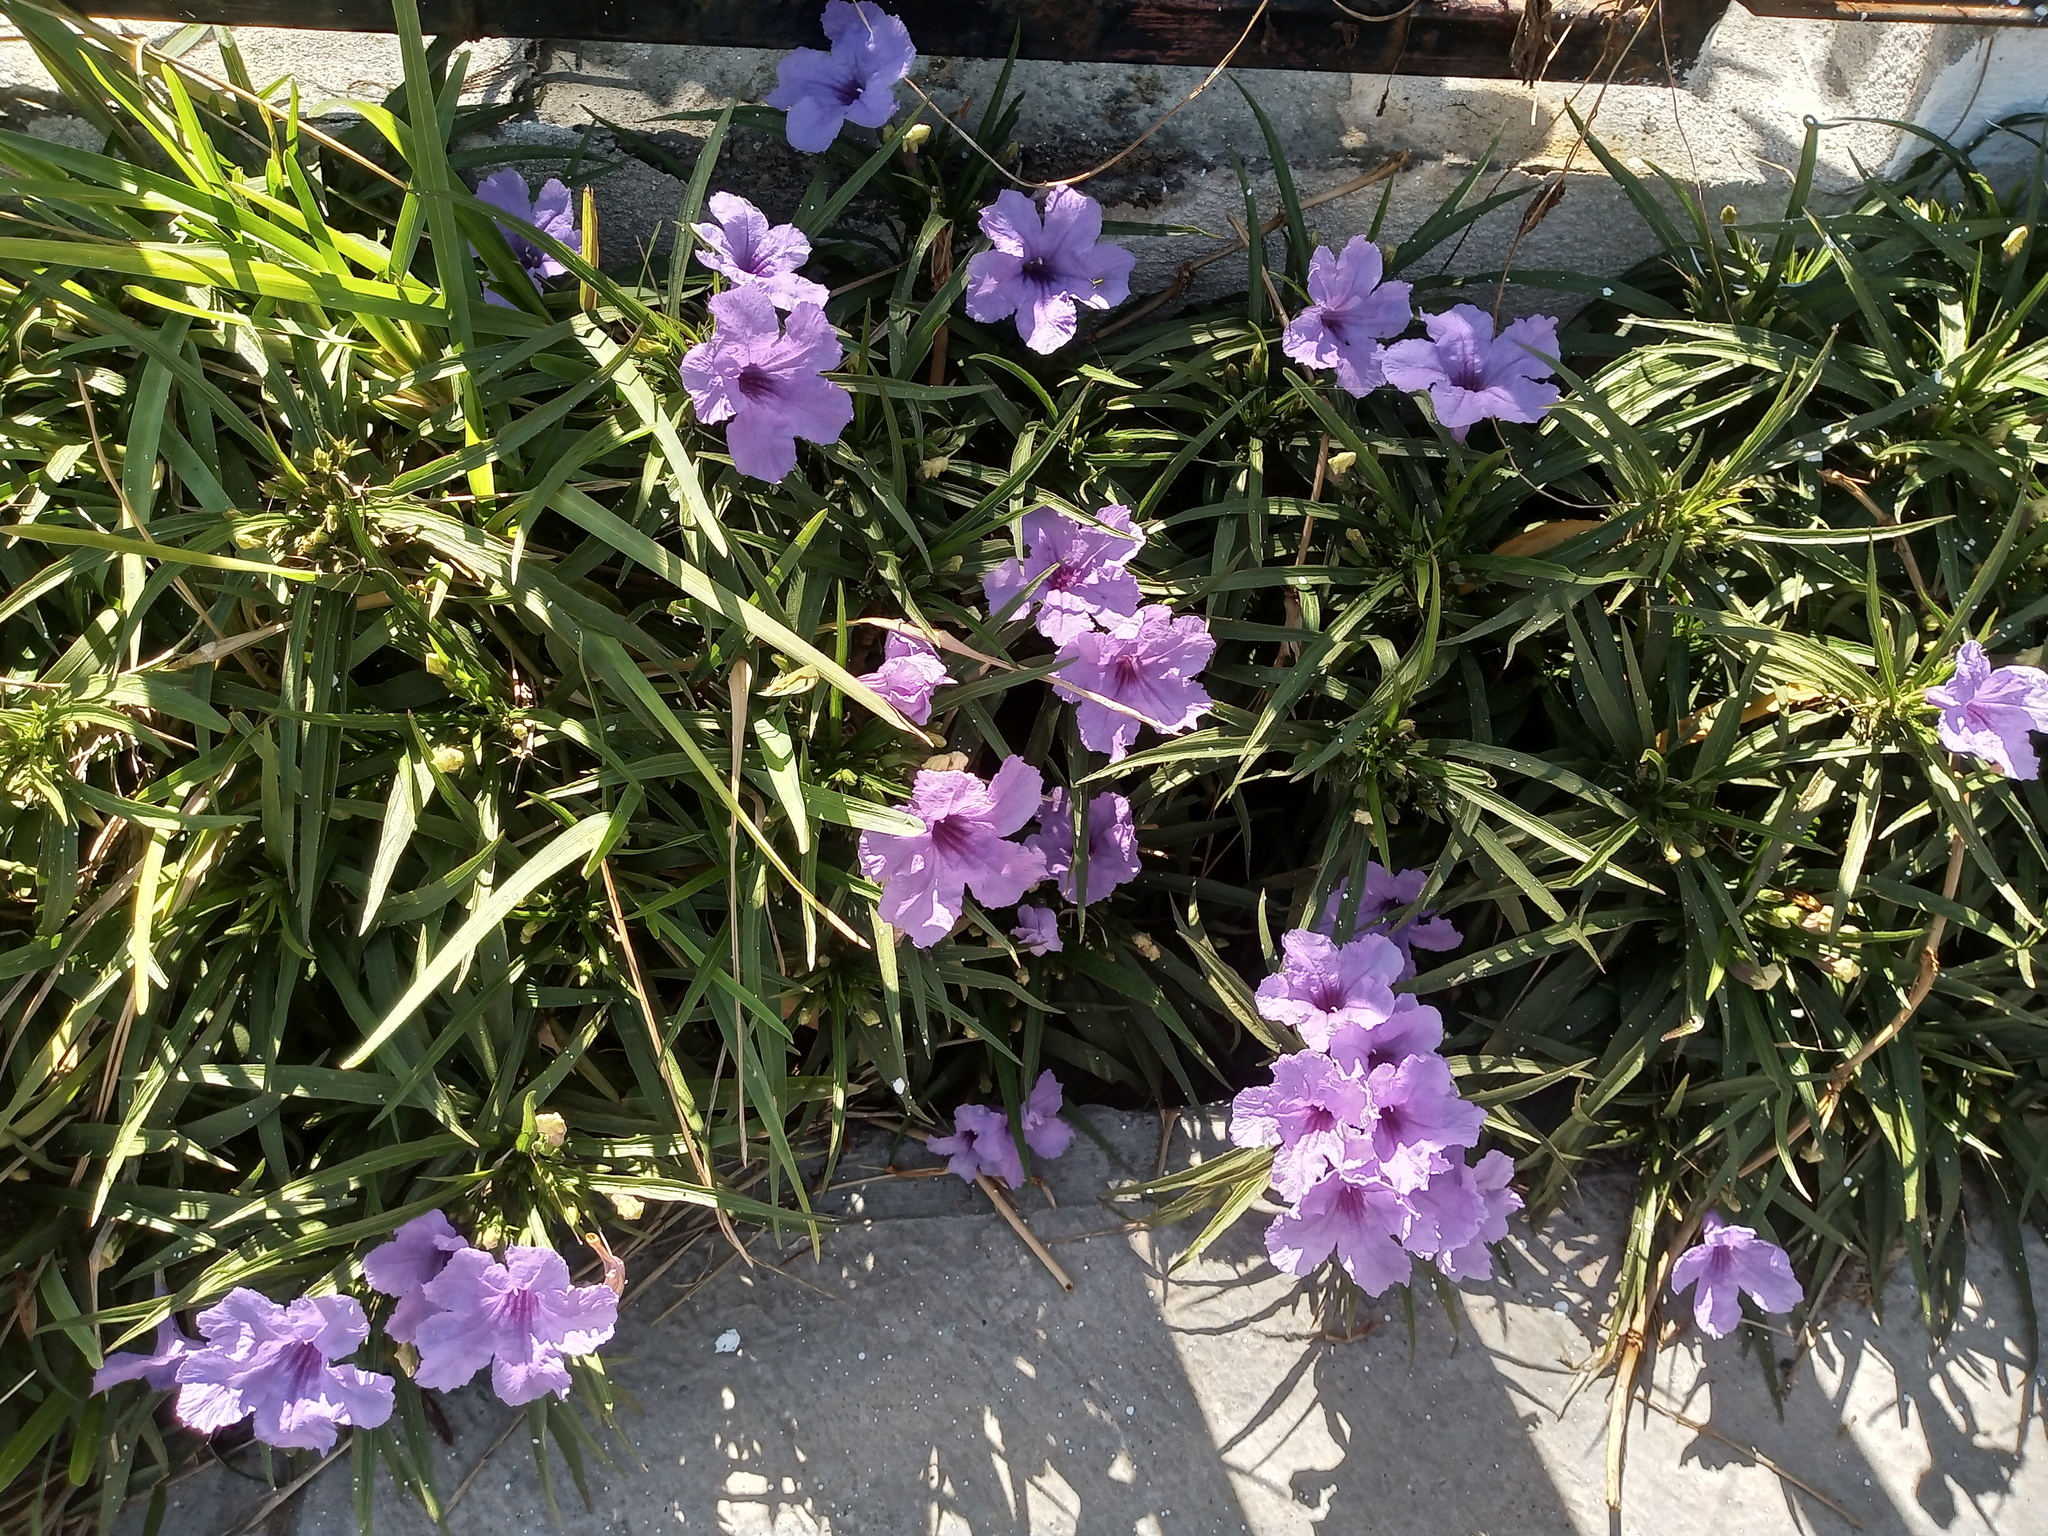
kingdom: Plantae
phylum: Tracheophyta
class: Magnoliopsida
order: Lamiales
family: Acanthaceae
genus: Ruellia
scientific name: Ruellia simplex
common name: Softseed wild petunia
